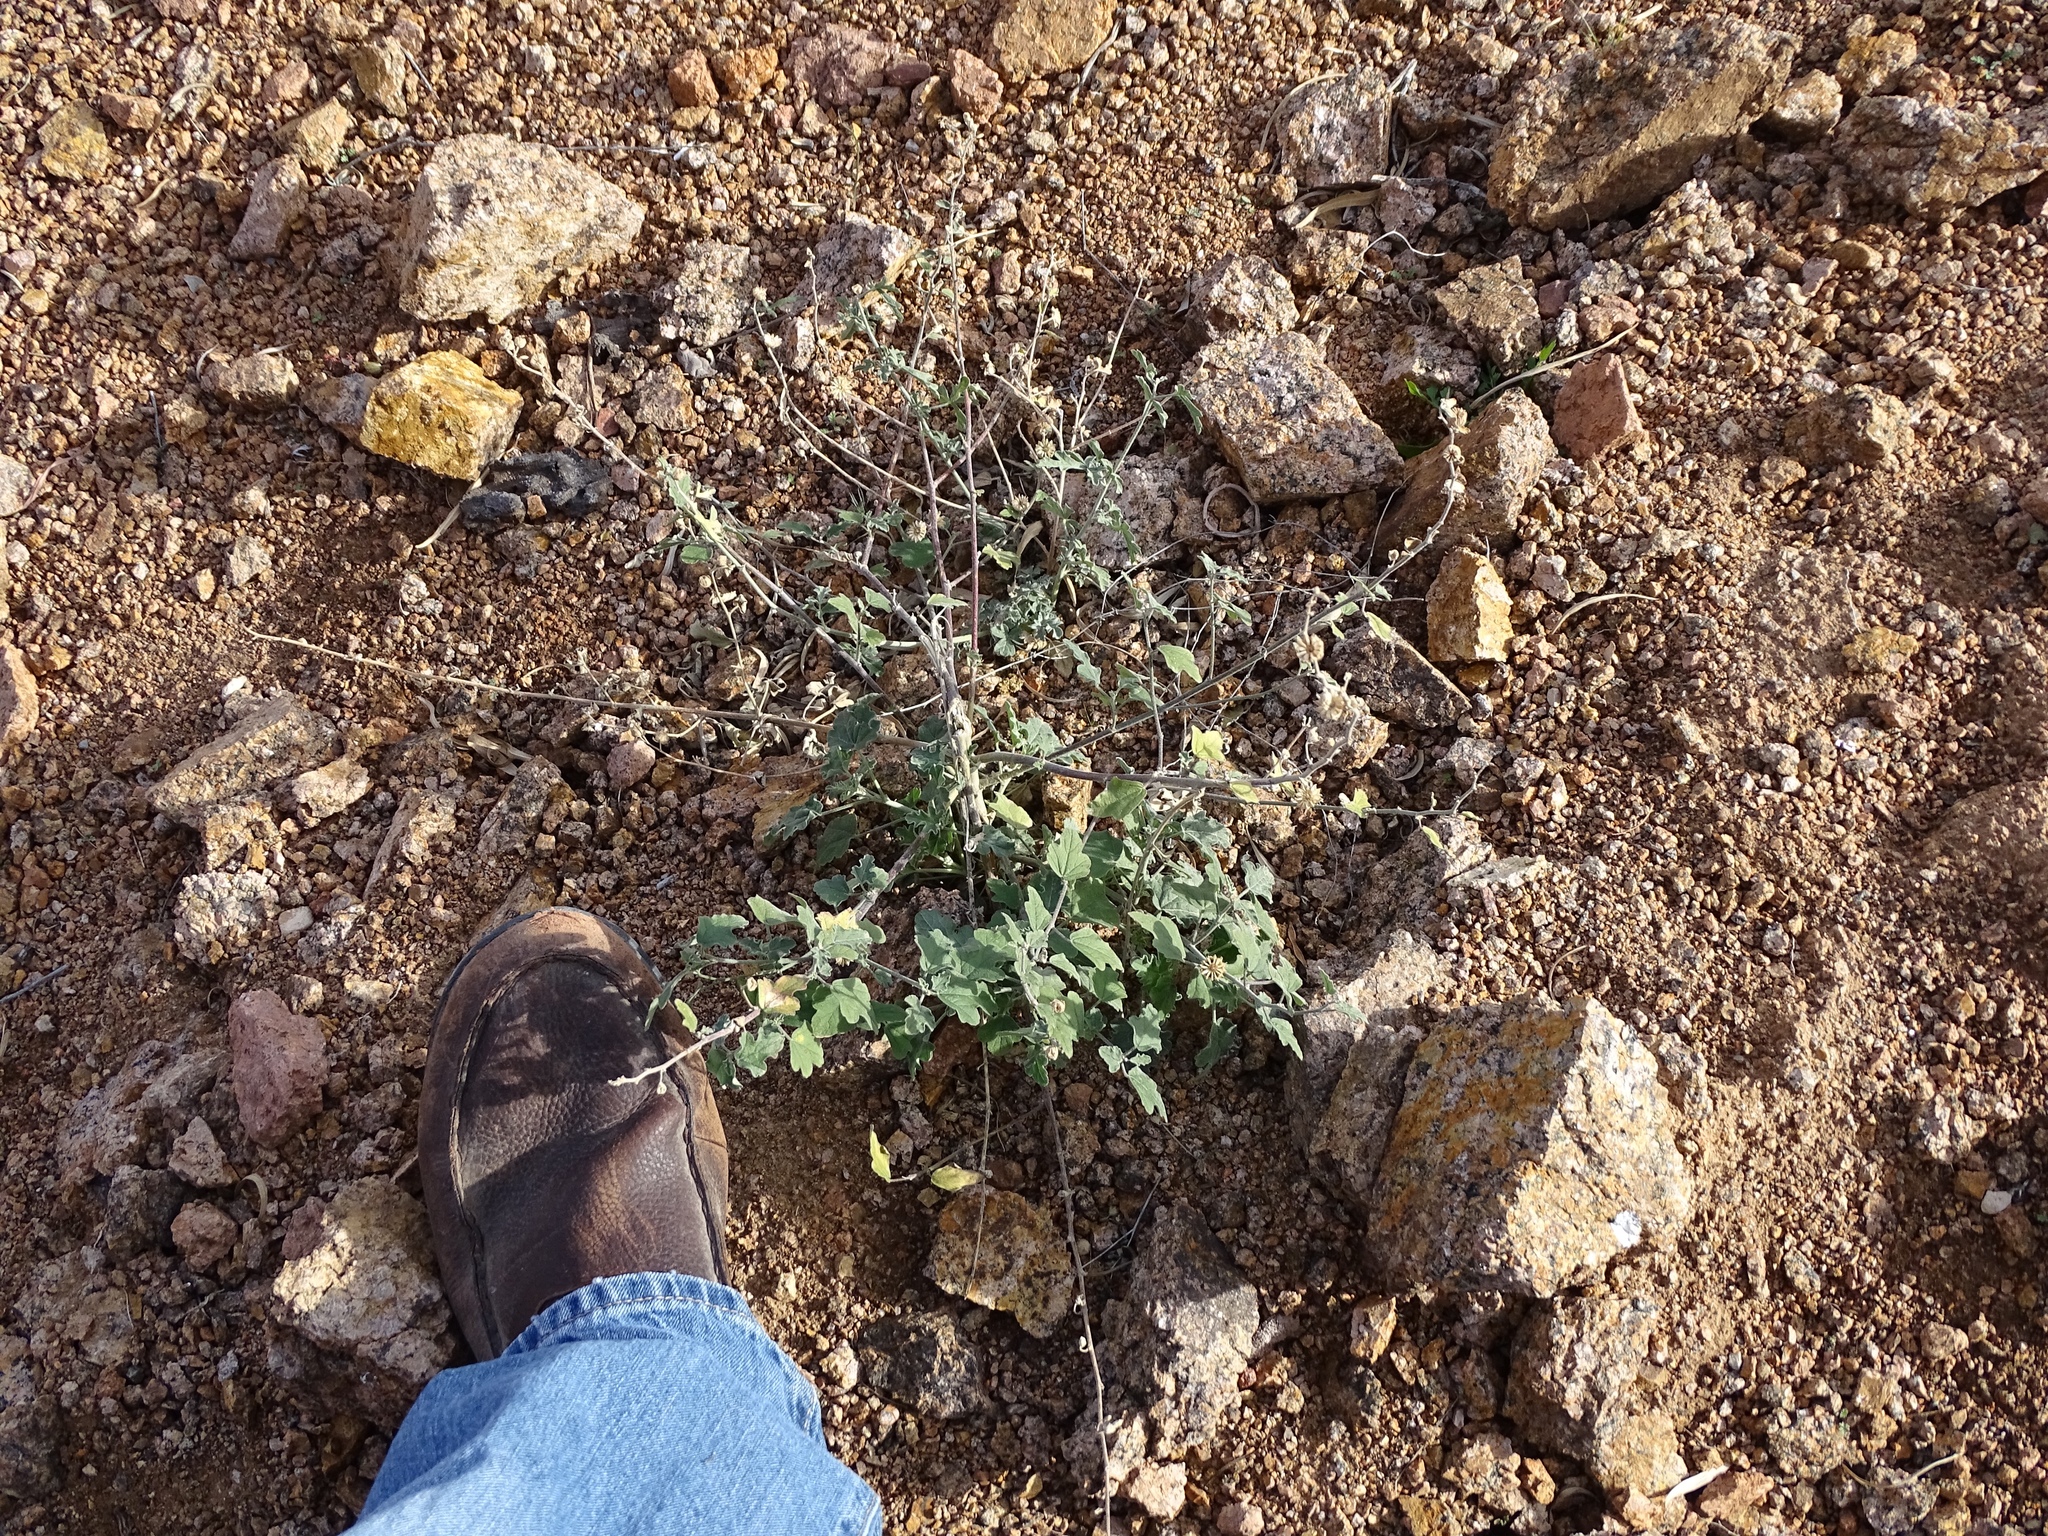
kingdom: Plantae
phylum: Tracheophyta
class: Magnoliopsida
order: Malvales
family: Malvaceae
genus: Sphaeralcea
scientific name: Sphaeralcea incana
